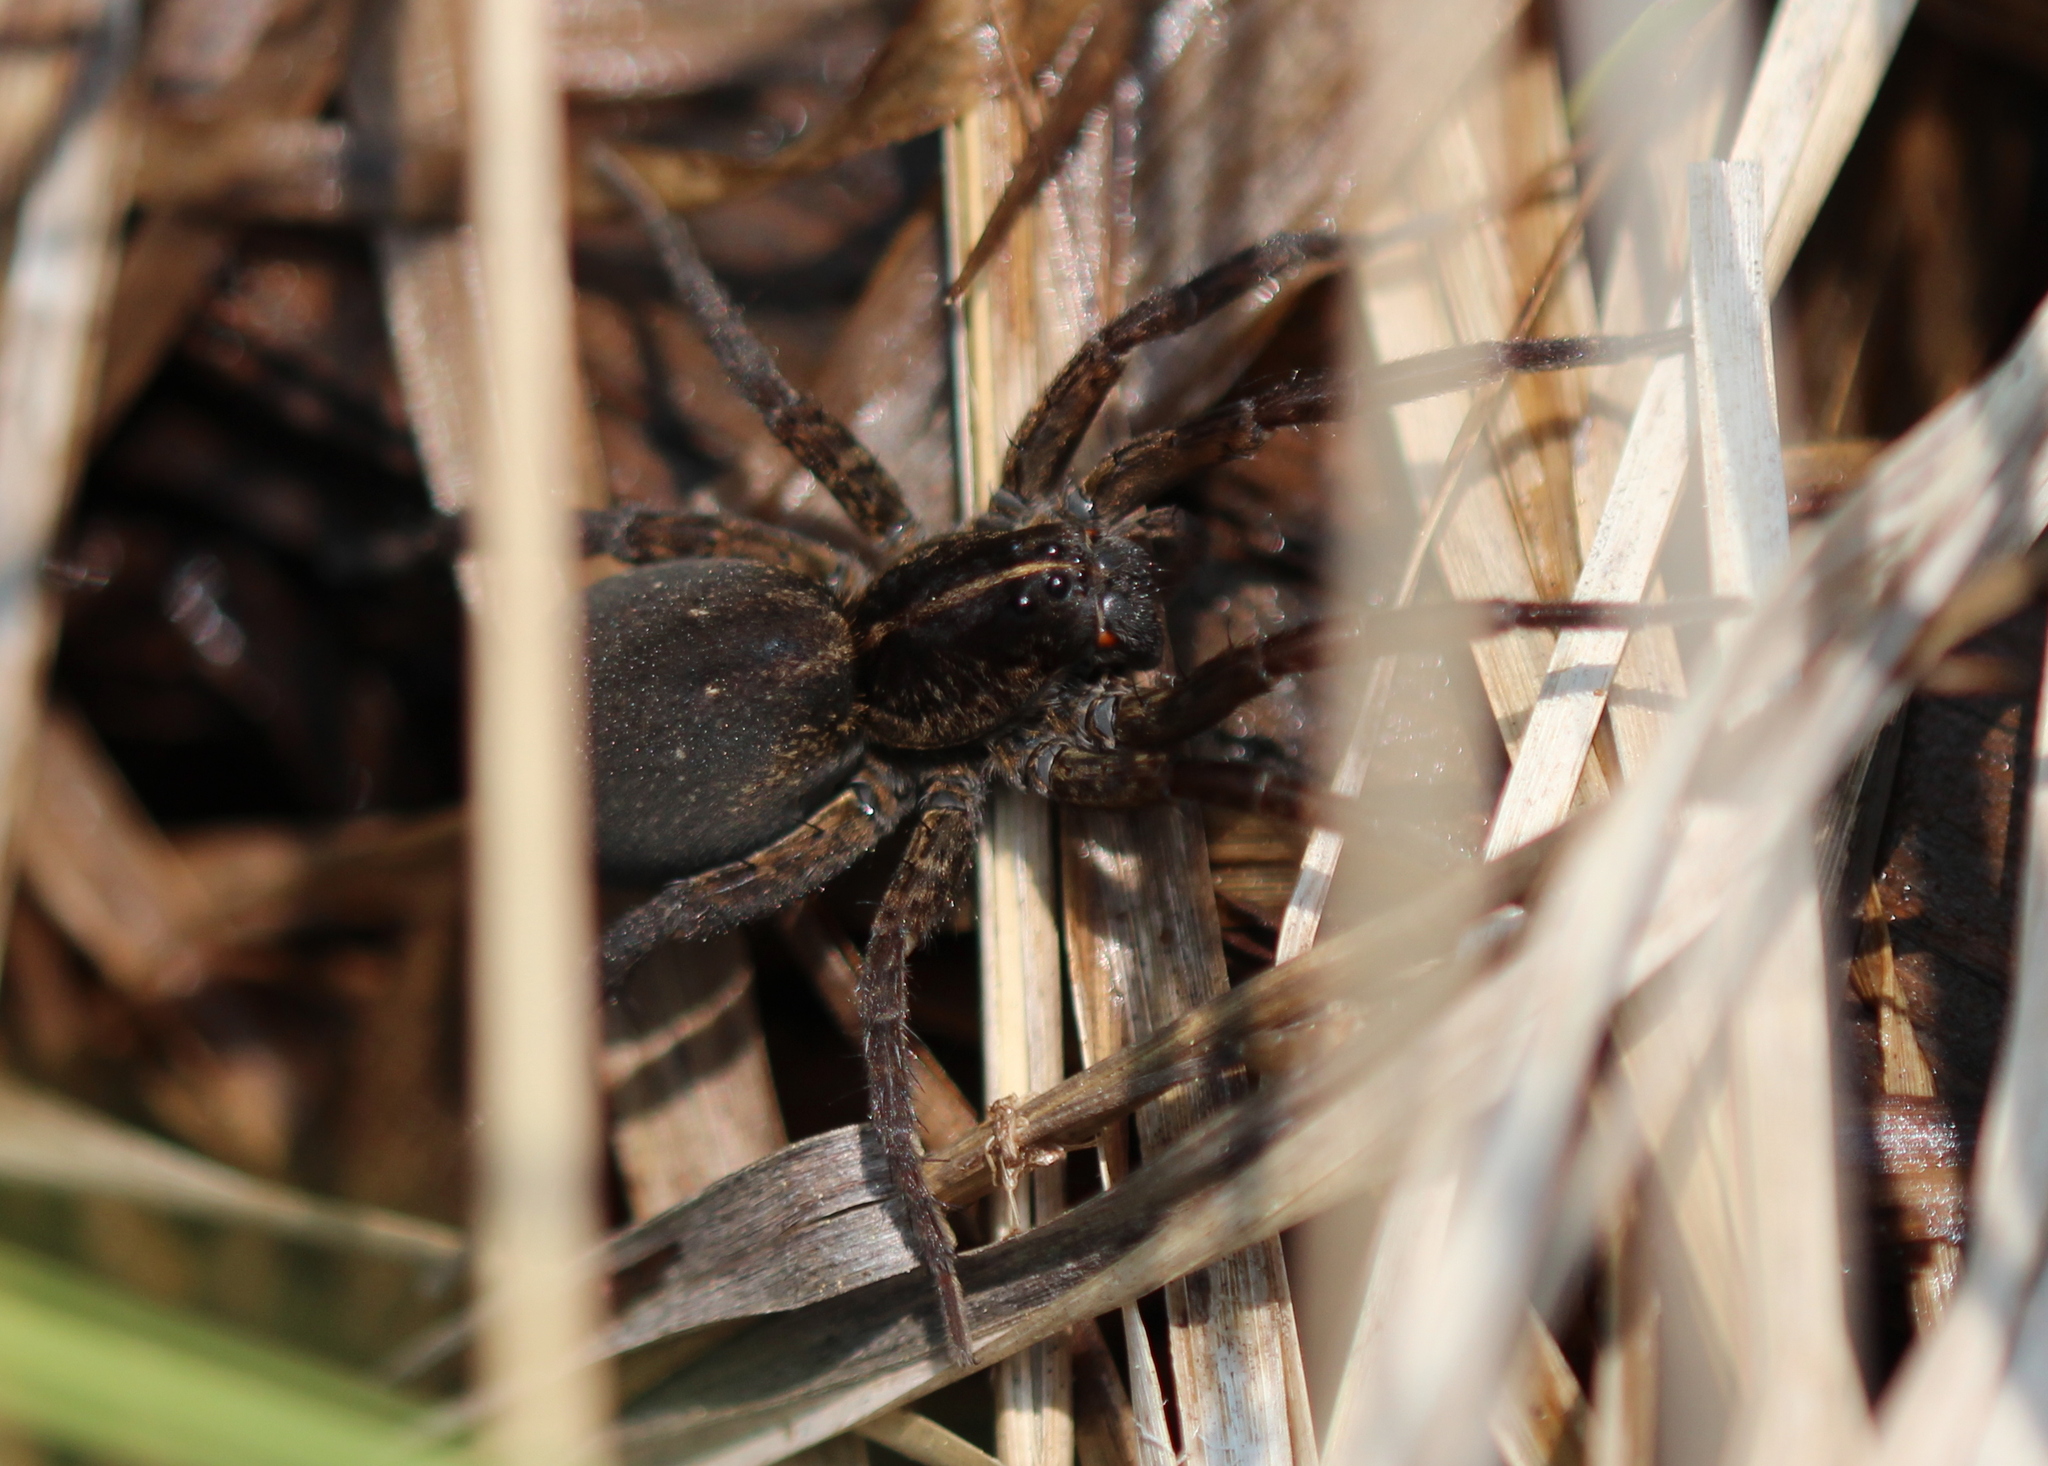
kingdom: Animalia
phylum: Arthropoda
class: Arachnida
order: Araneae
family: Lycosidae
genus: Tigrosa
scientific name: Tigrosa helluo
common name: Wetland giant wolf spider
